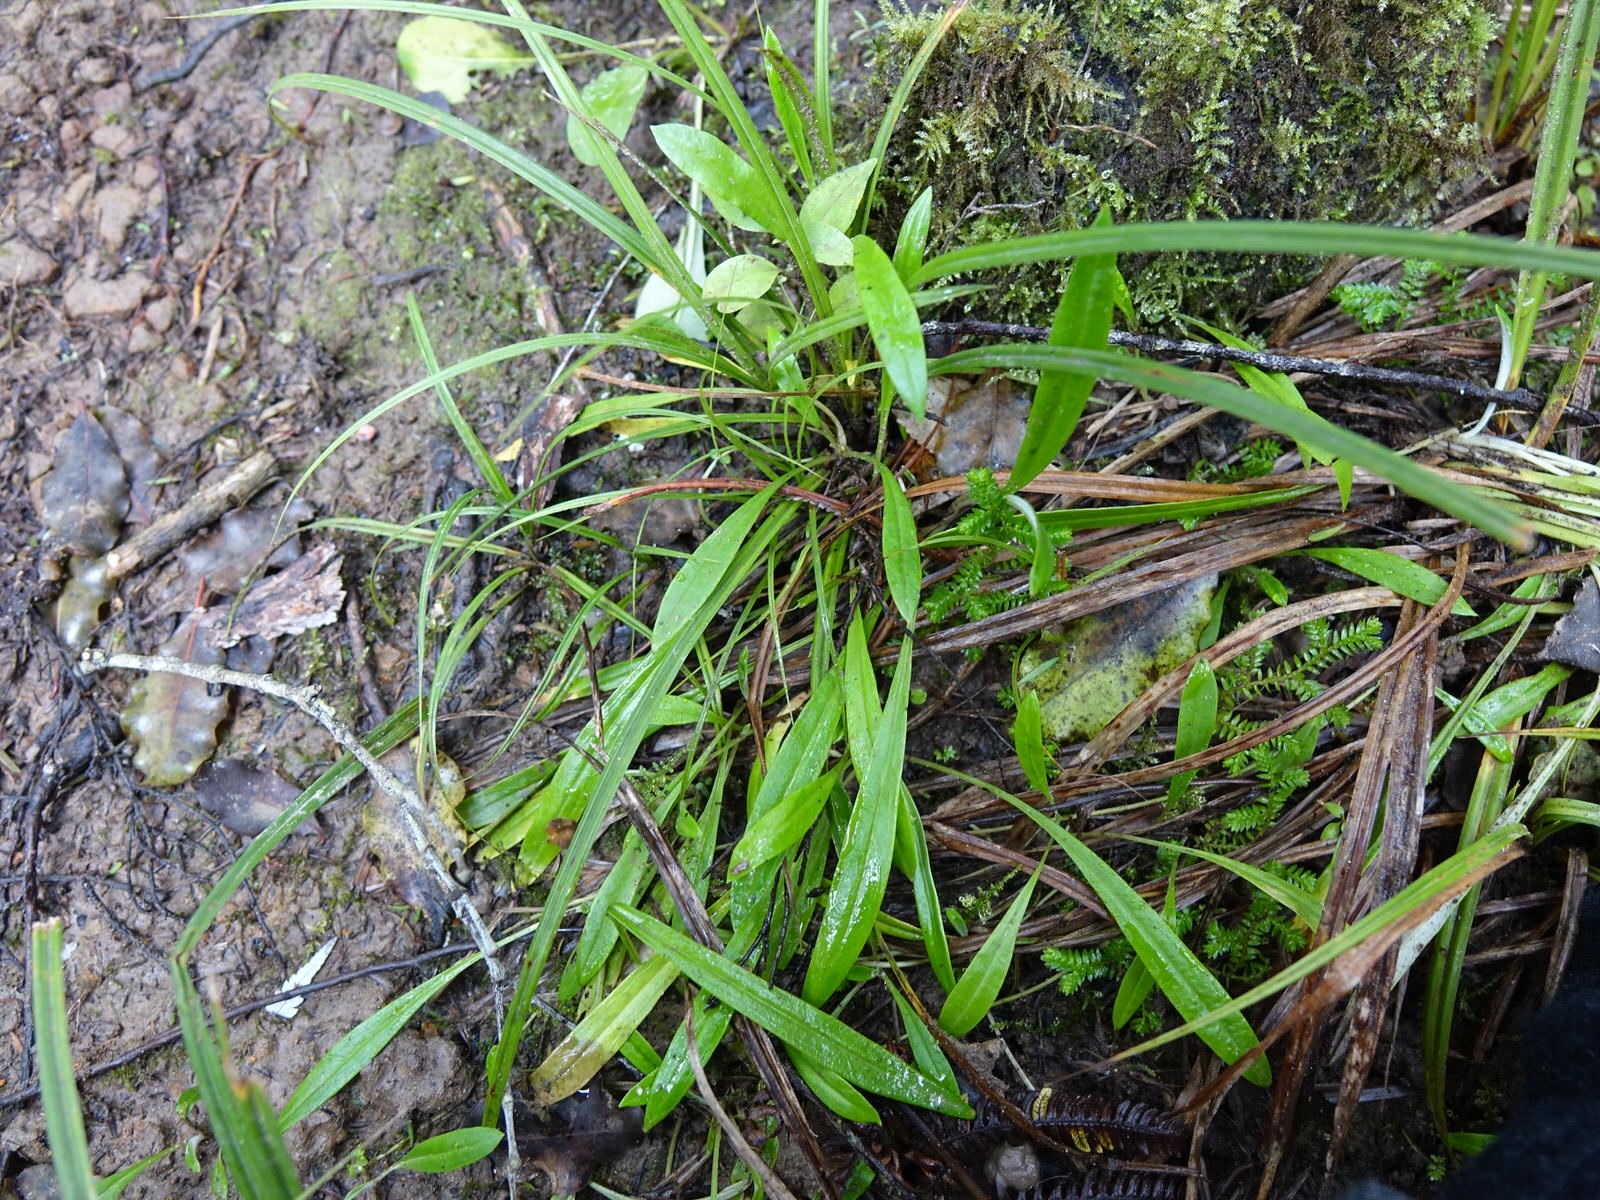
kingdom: Plantae
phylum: Tracheophyta
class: Magnoliopsida
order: Asterales
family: Asteraceae
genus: Euchiton
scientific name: Euchiton japonicus
